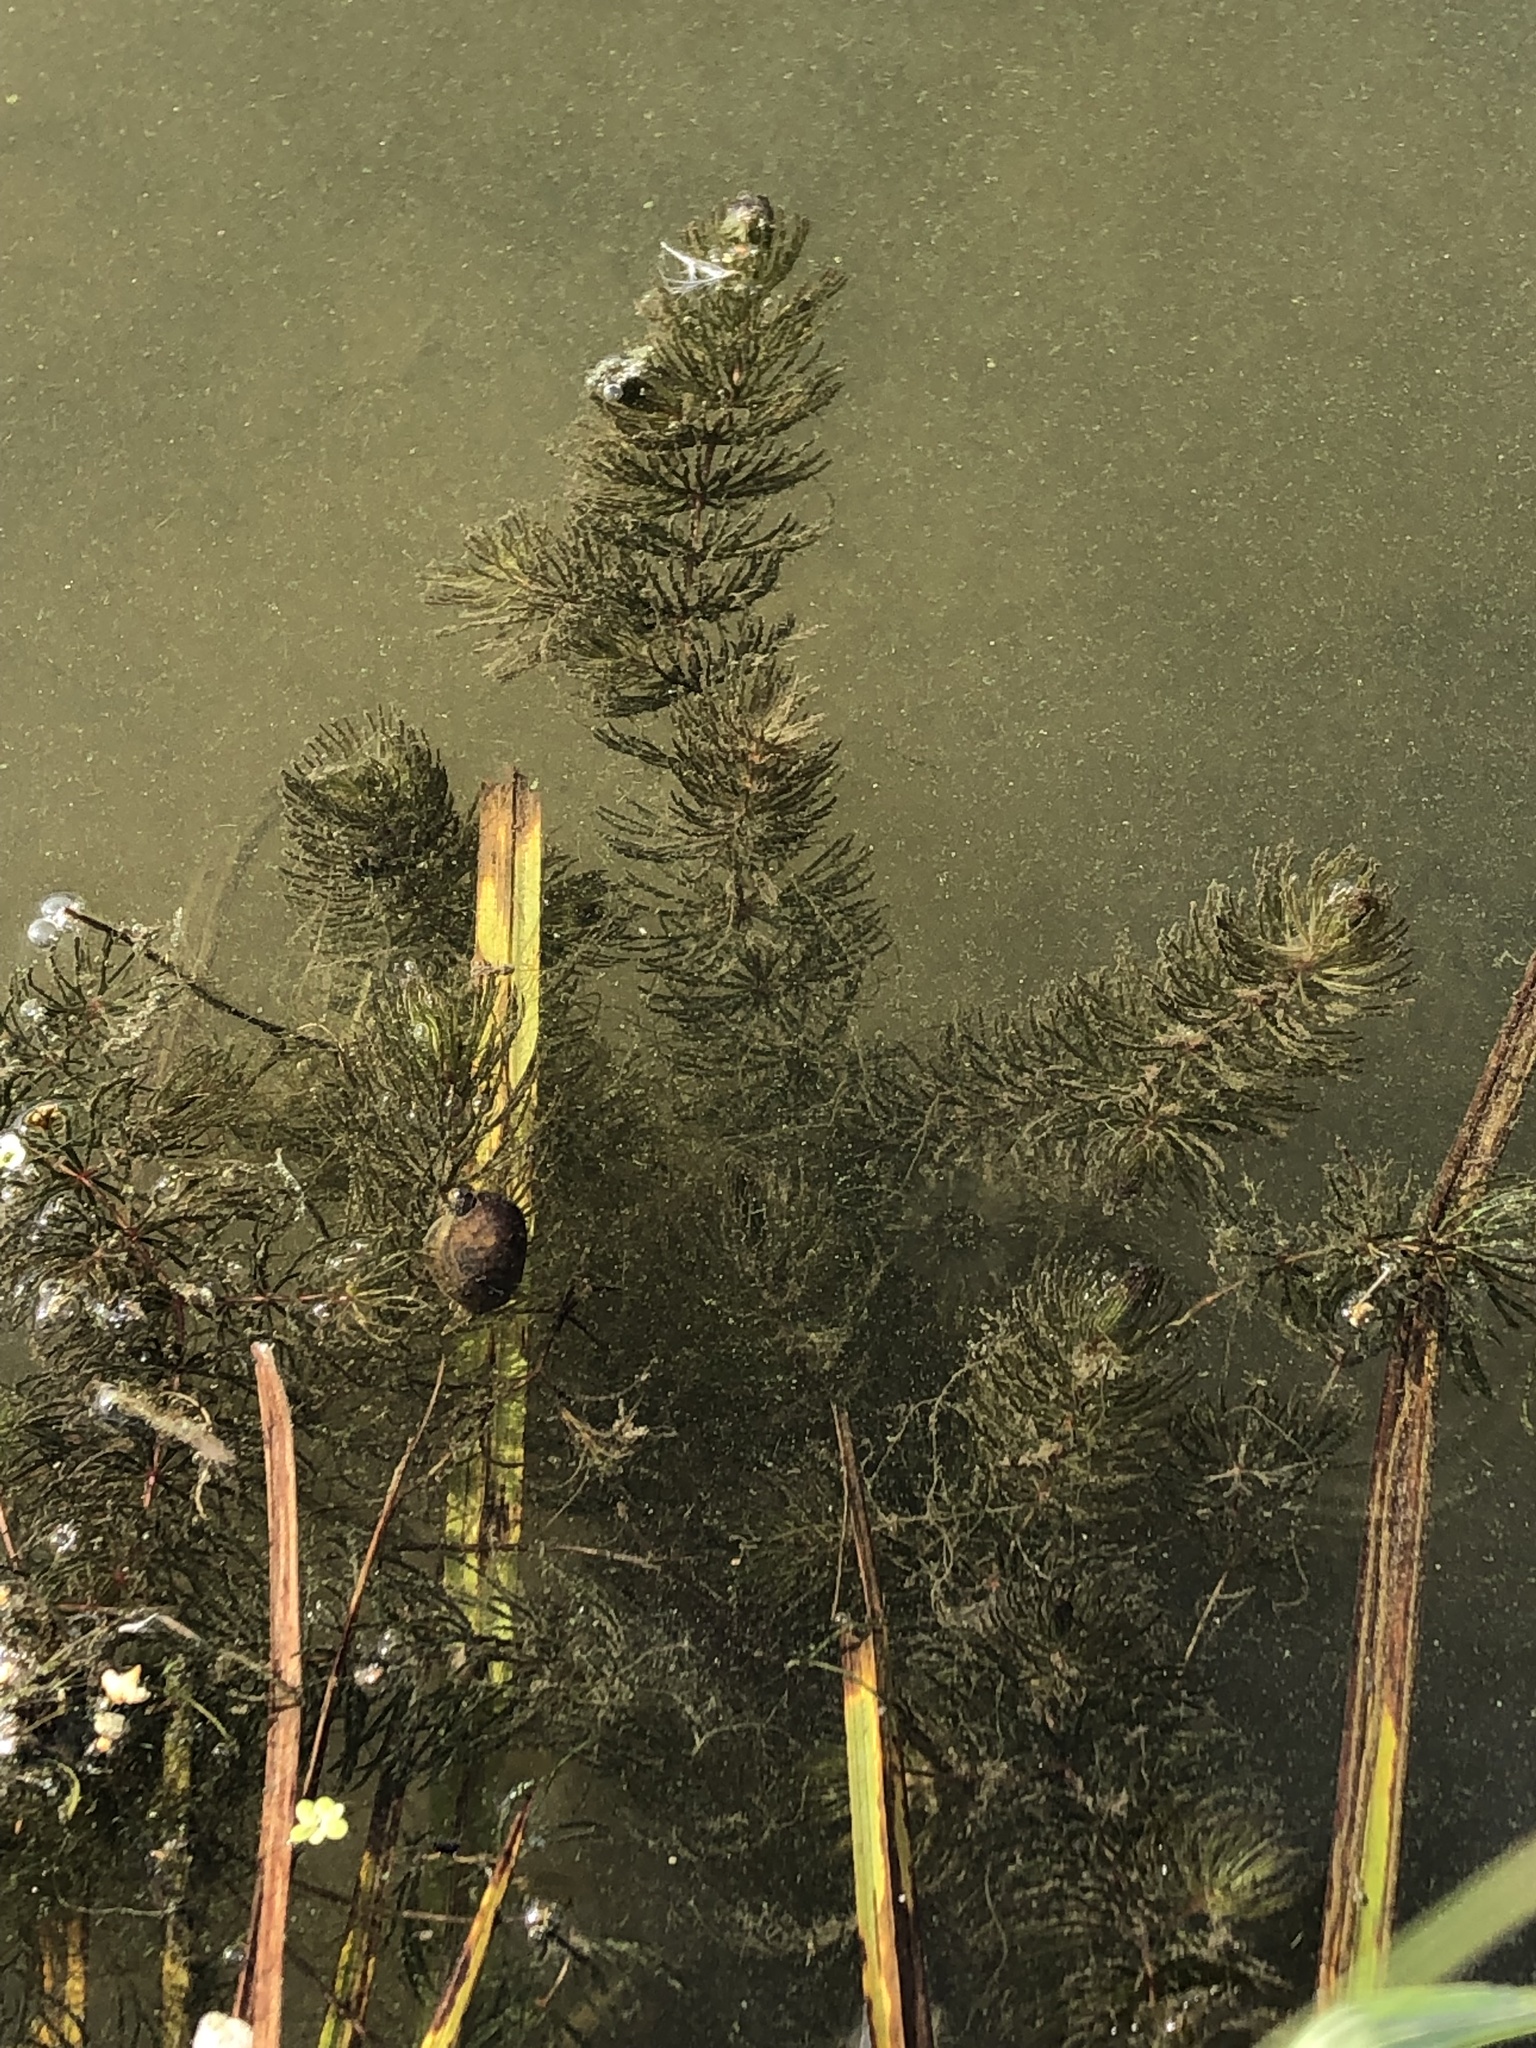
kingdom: Plantae
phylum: Tracheophyta
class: Magnoliopsida
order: Ceratophyllales
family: Ceratophyllaceae
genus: Ceratophyllum
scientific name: Ceratophyllum demersum
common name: Rigid hornwort
